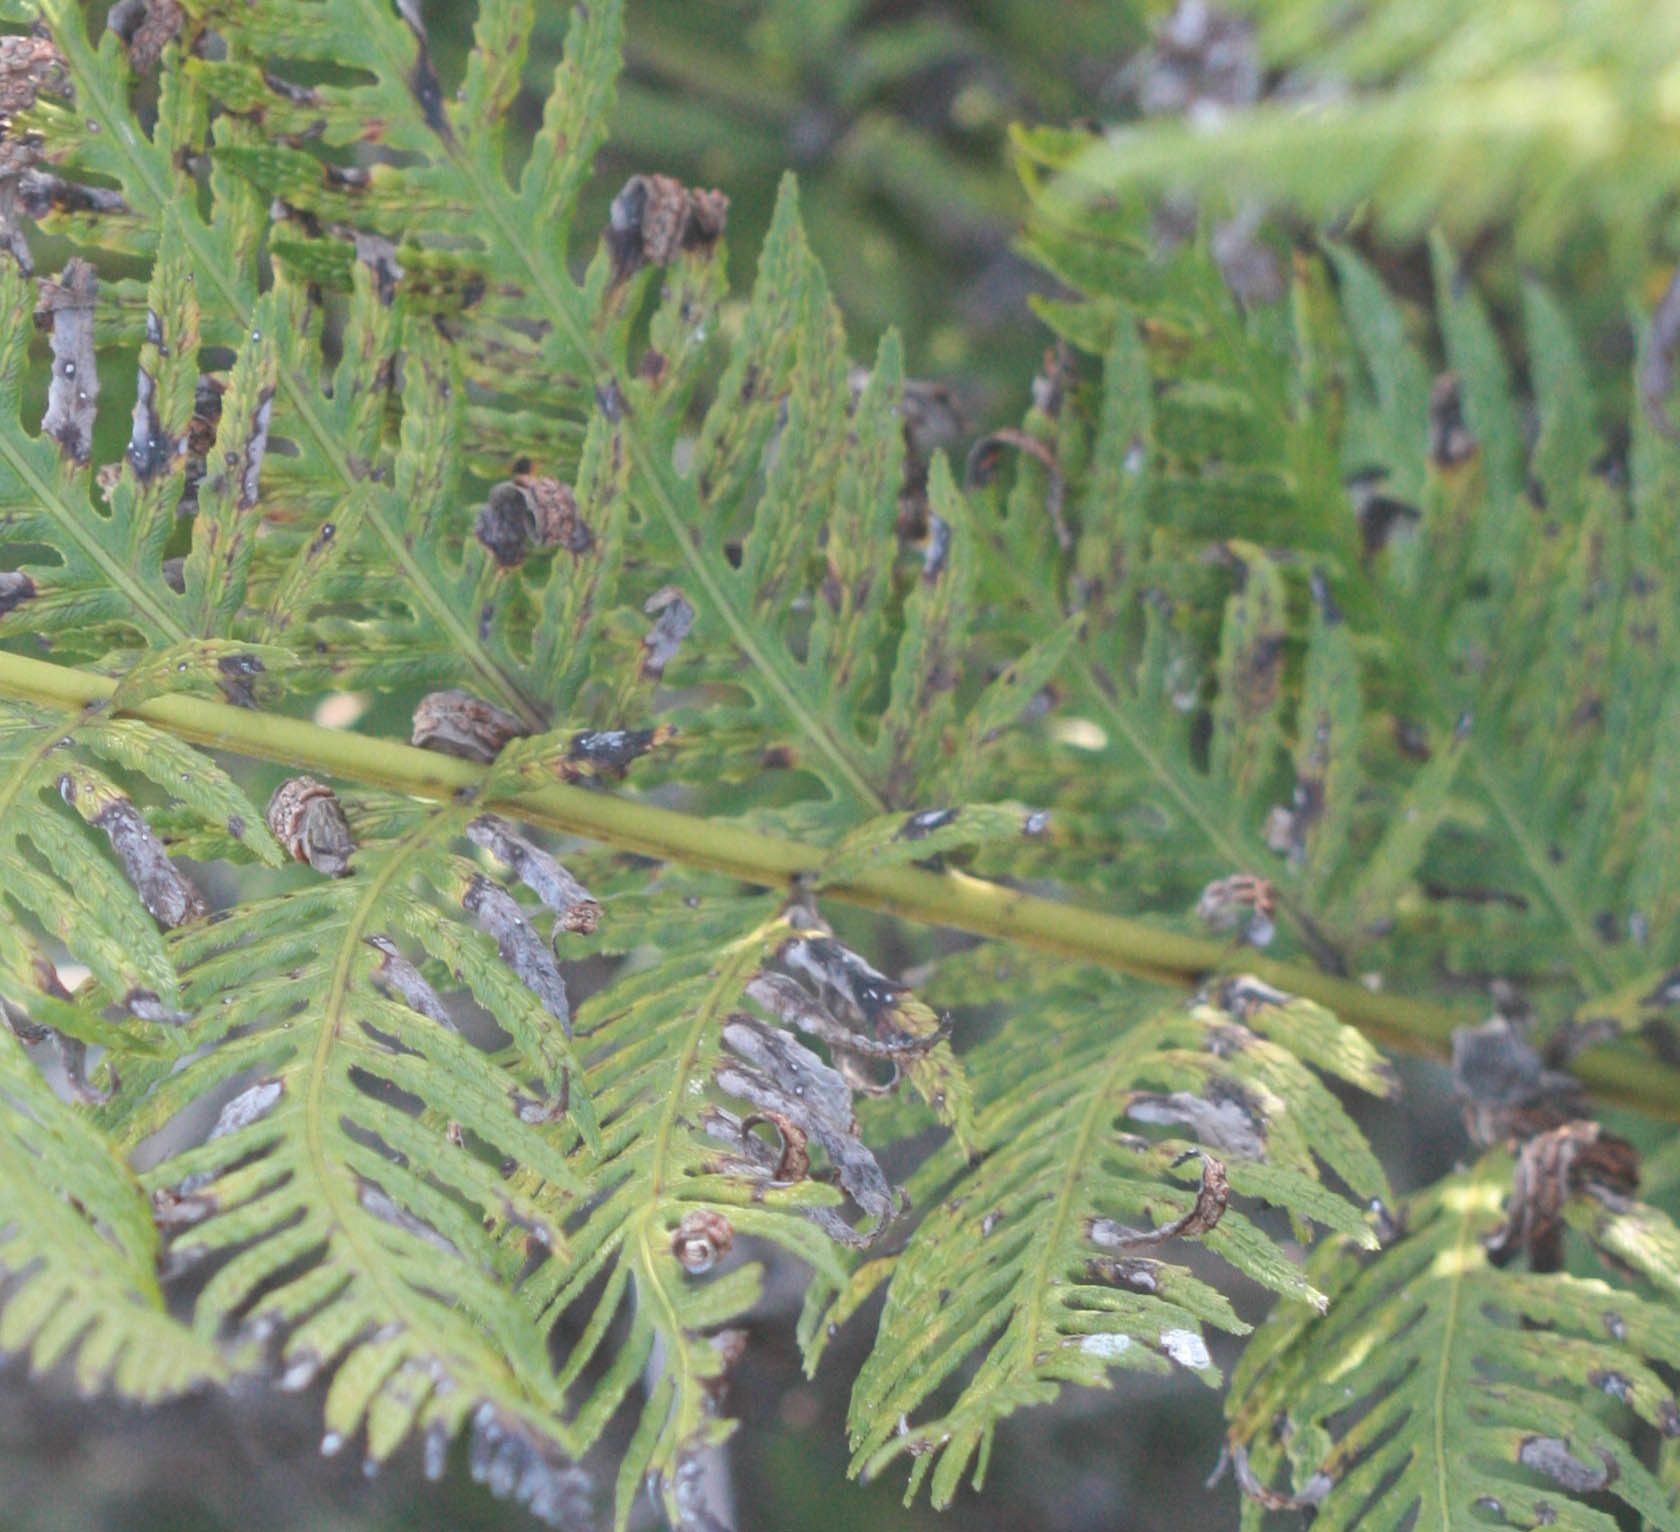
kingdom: Plantae
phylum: Tracheophyta
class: Polypodiopsida
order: Polypodiales
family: Blechnaceae
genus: Woodwardia
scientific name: Woodwardia fimbriata
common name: Giant chain fern
